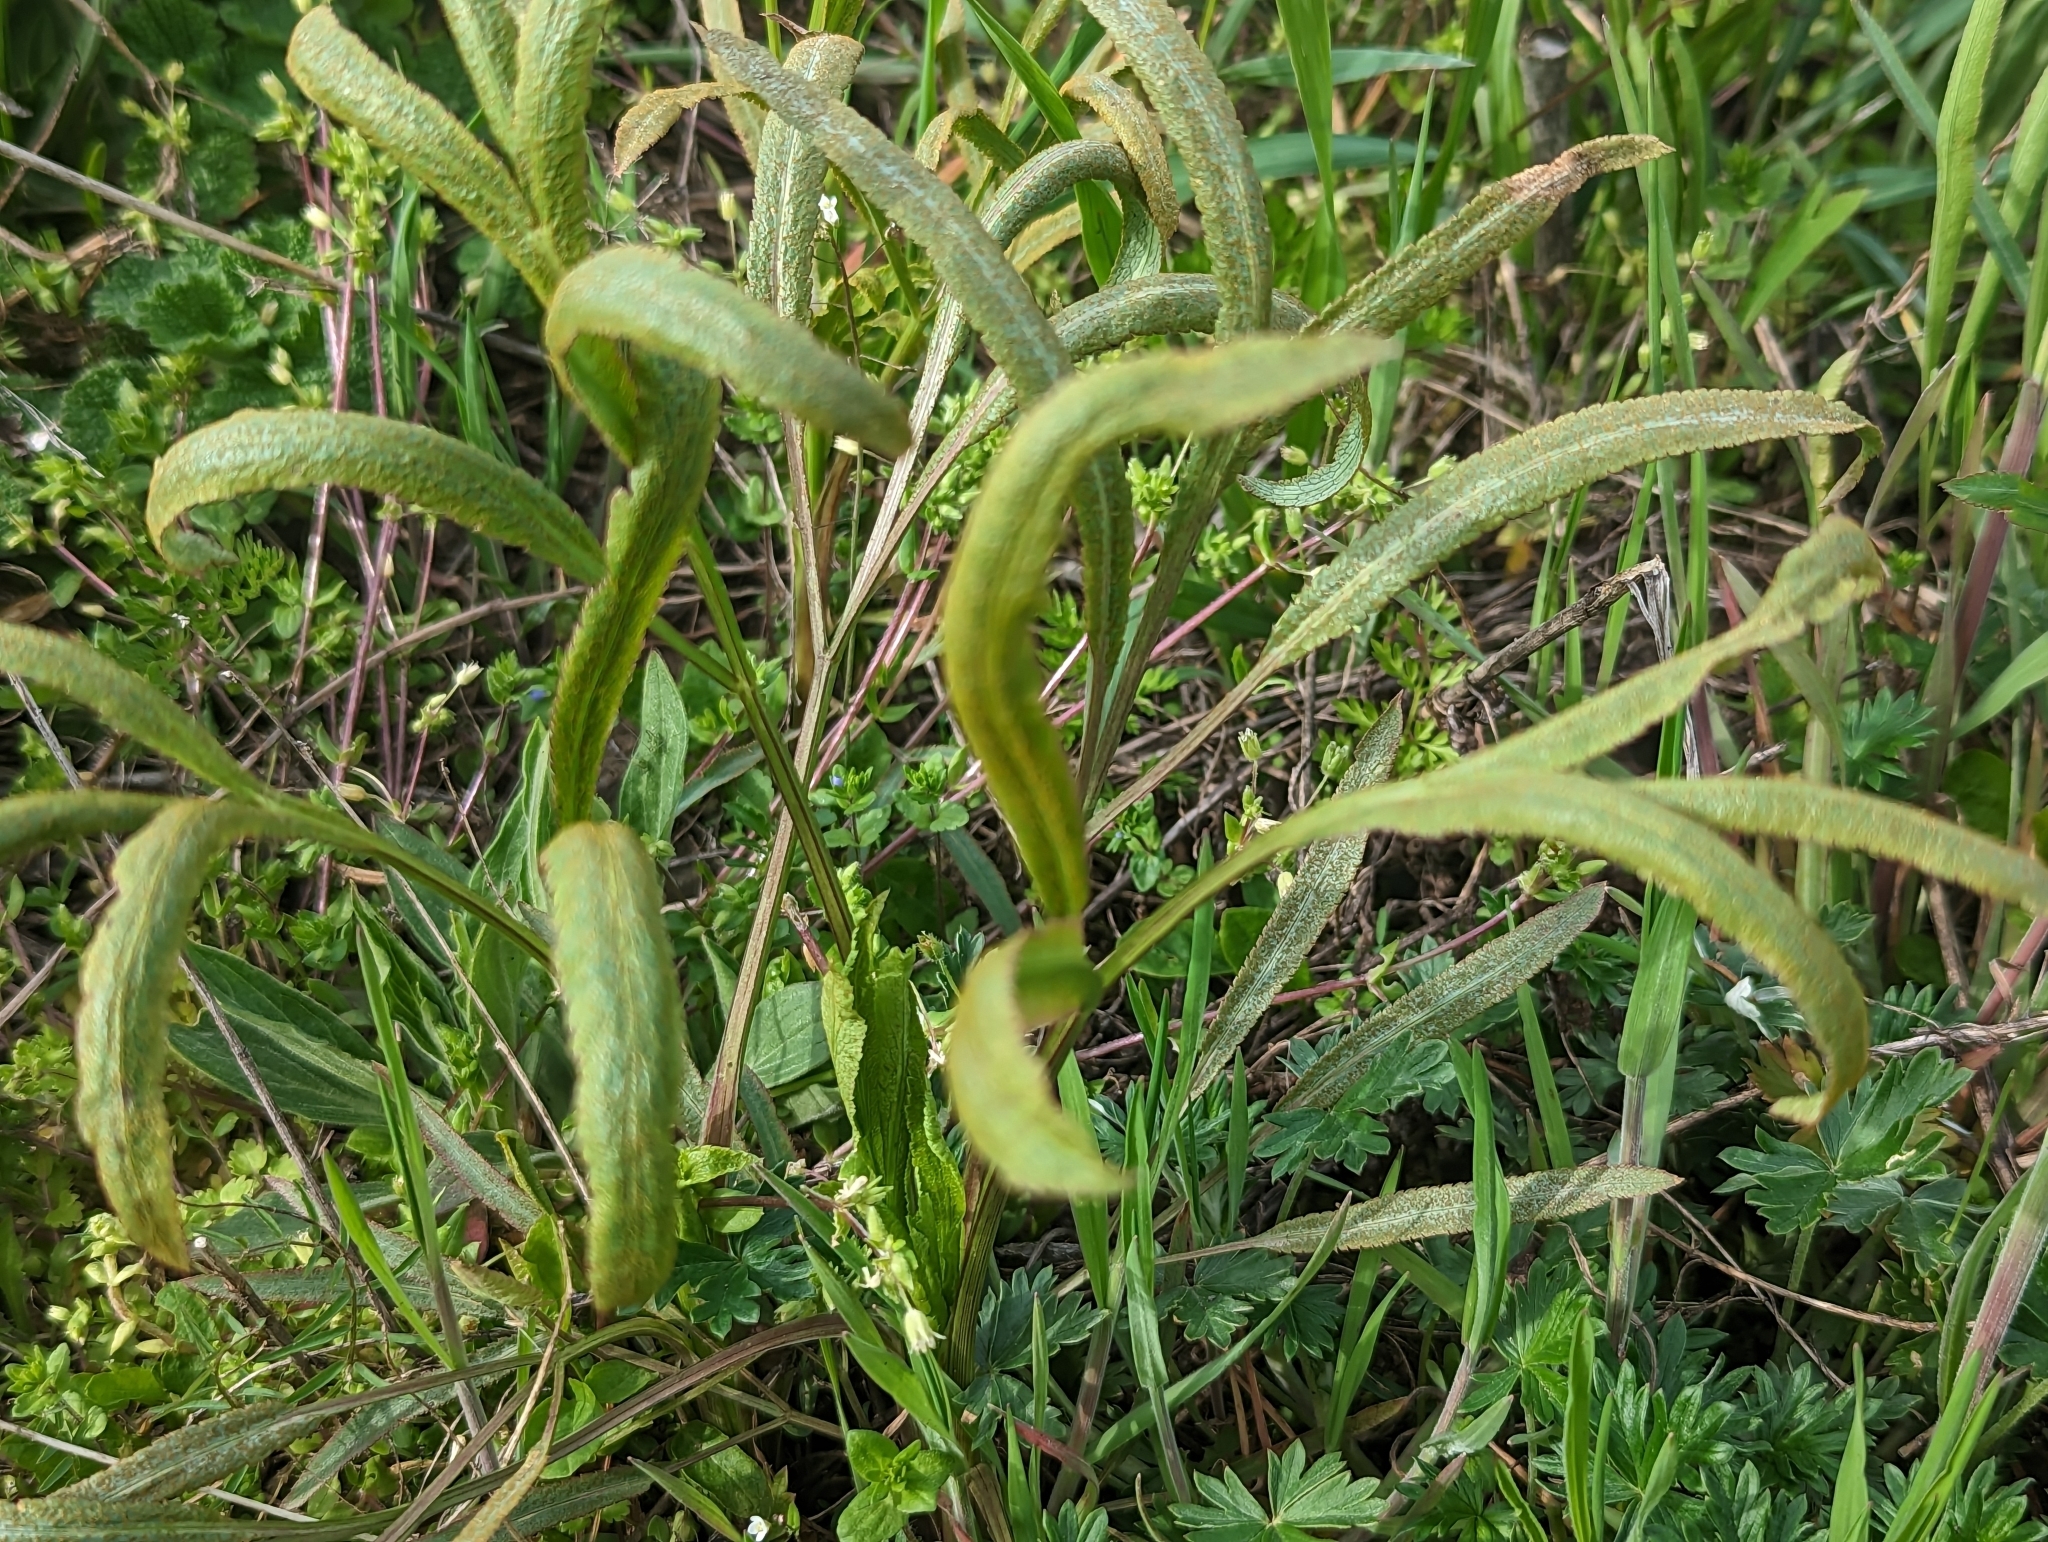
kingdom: Plantae
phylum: Tracheophyta
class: Magnoliopsida
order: Apiales
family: Apiaceae
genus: Falcaria
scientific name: Falcaria vulgaris
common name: Longleaf
